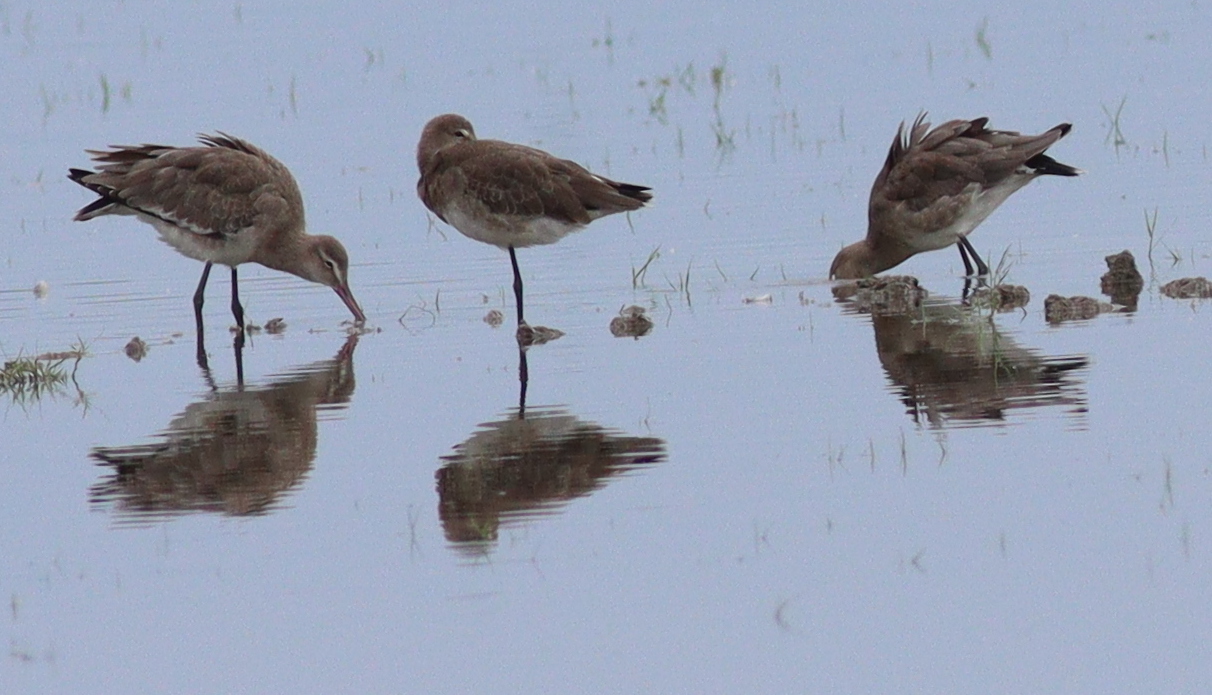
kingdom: Animalia
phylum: Chordata
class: Aves
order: Charadriiformes
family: Scolopacidae
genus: Limosa
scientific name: Limosa limosa
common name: Black-tailed godwit
